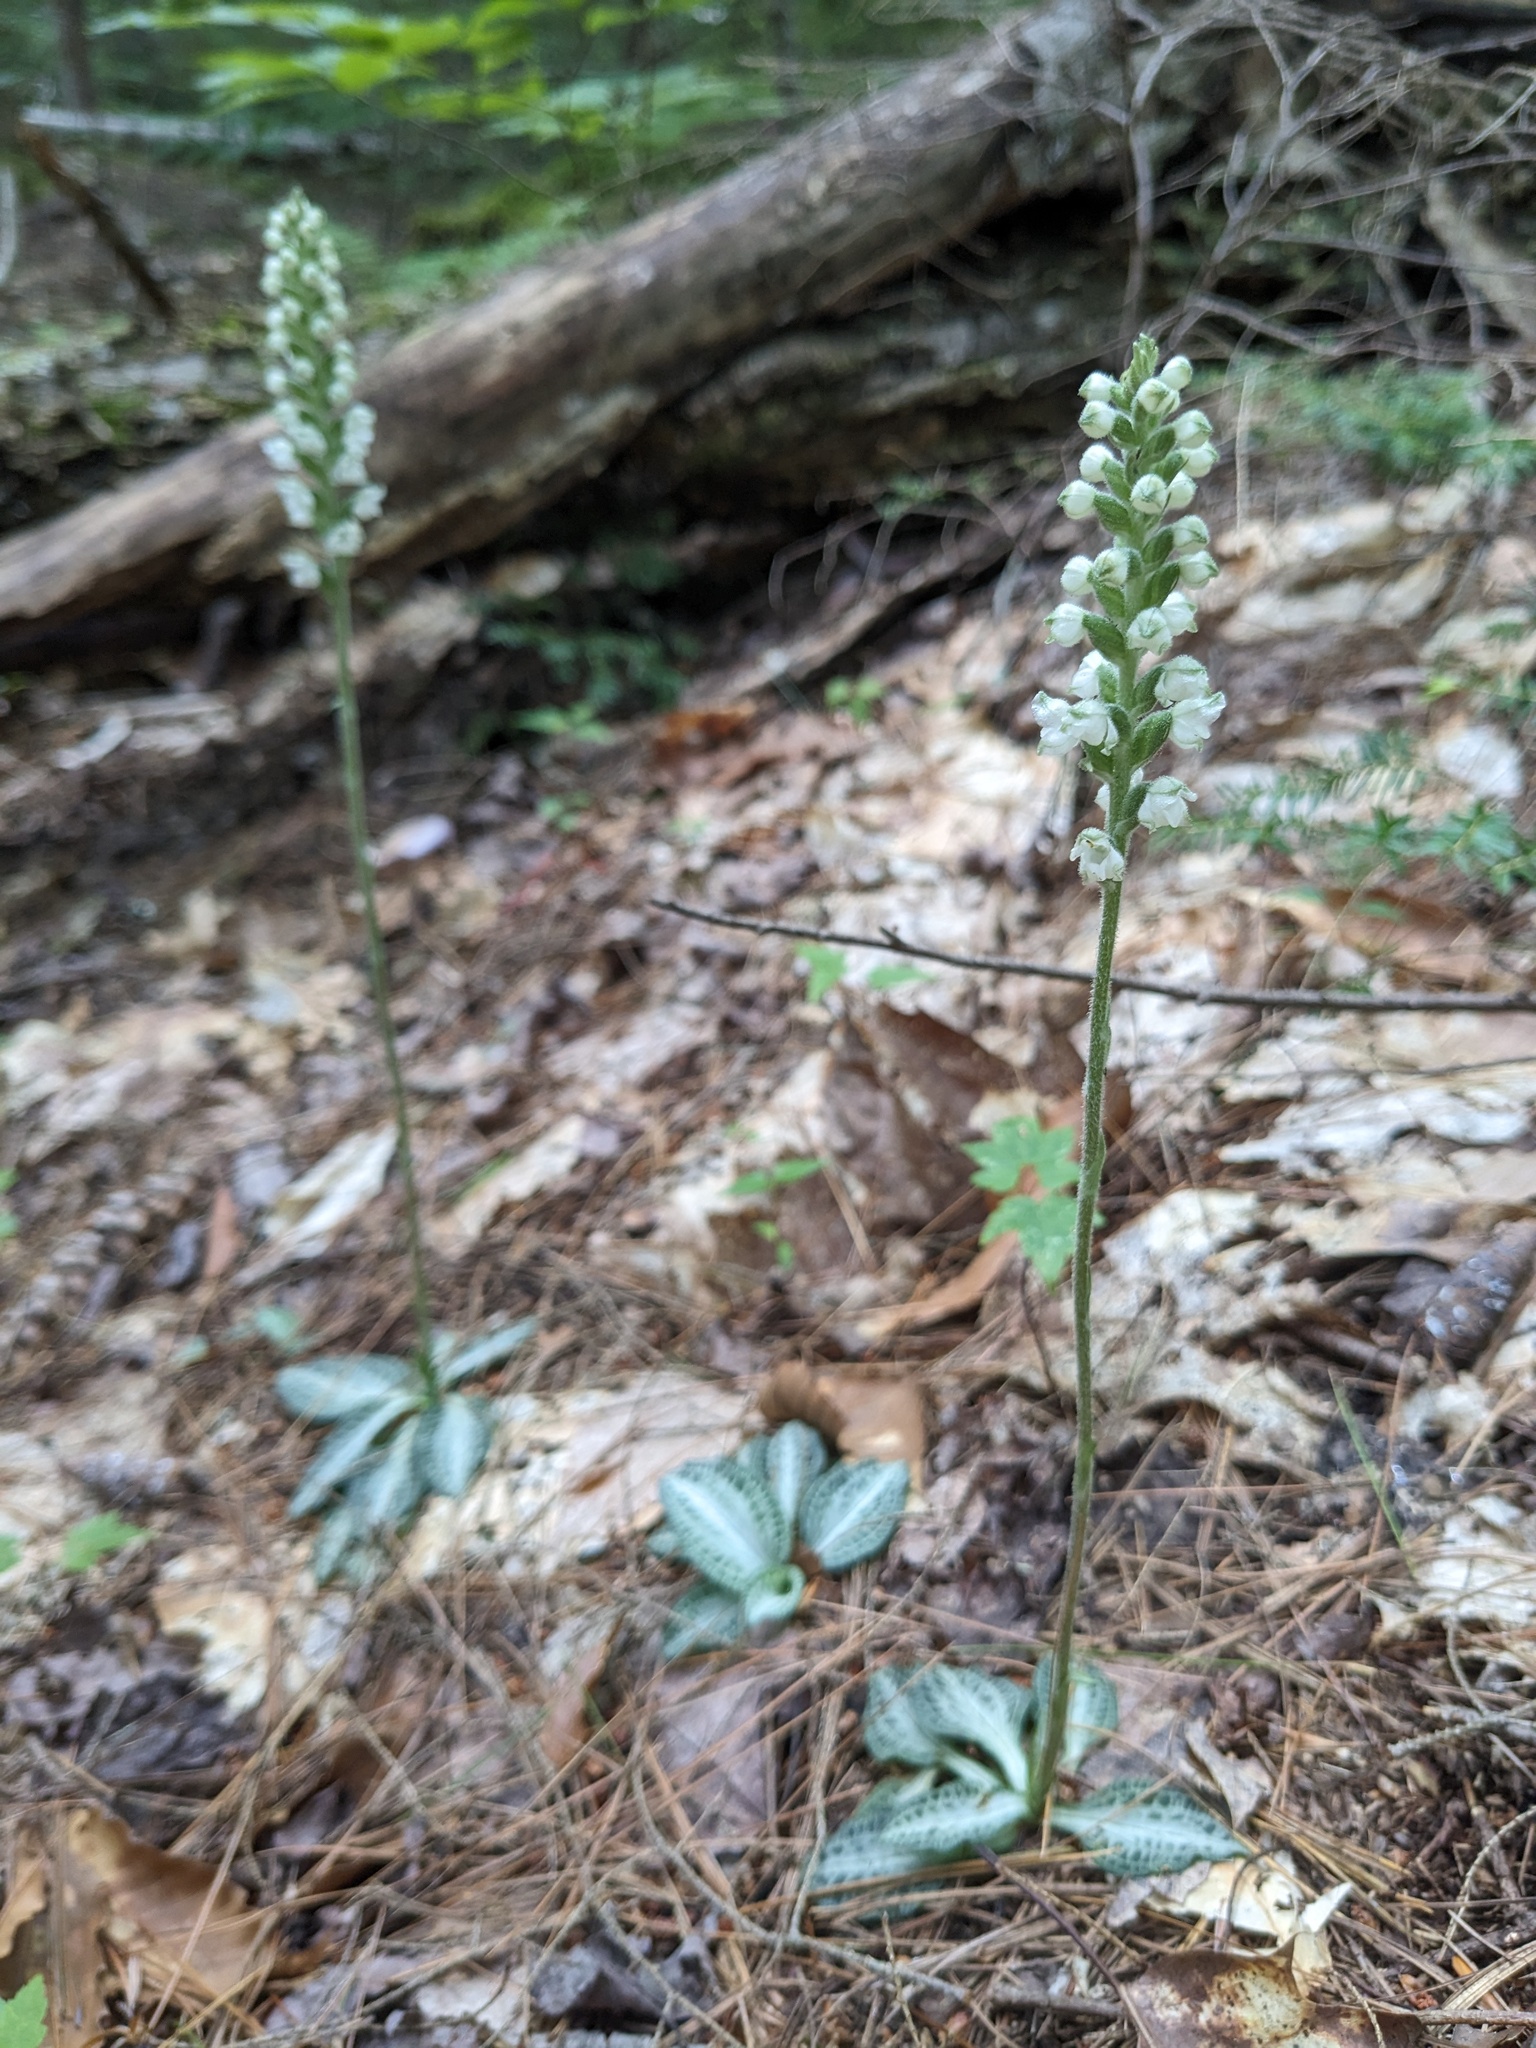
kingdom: Plantae
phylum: Tracheophyta
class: Liliopsida
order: Asparagales
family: Orchidaceae
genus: Goodyera
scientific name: Goodyera pubescens
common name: Downy rattlesnake-plantain
